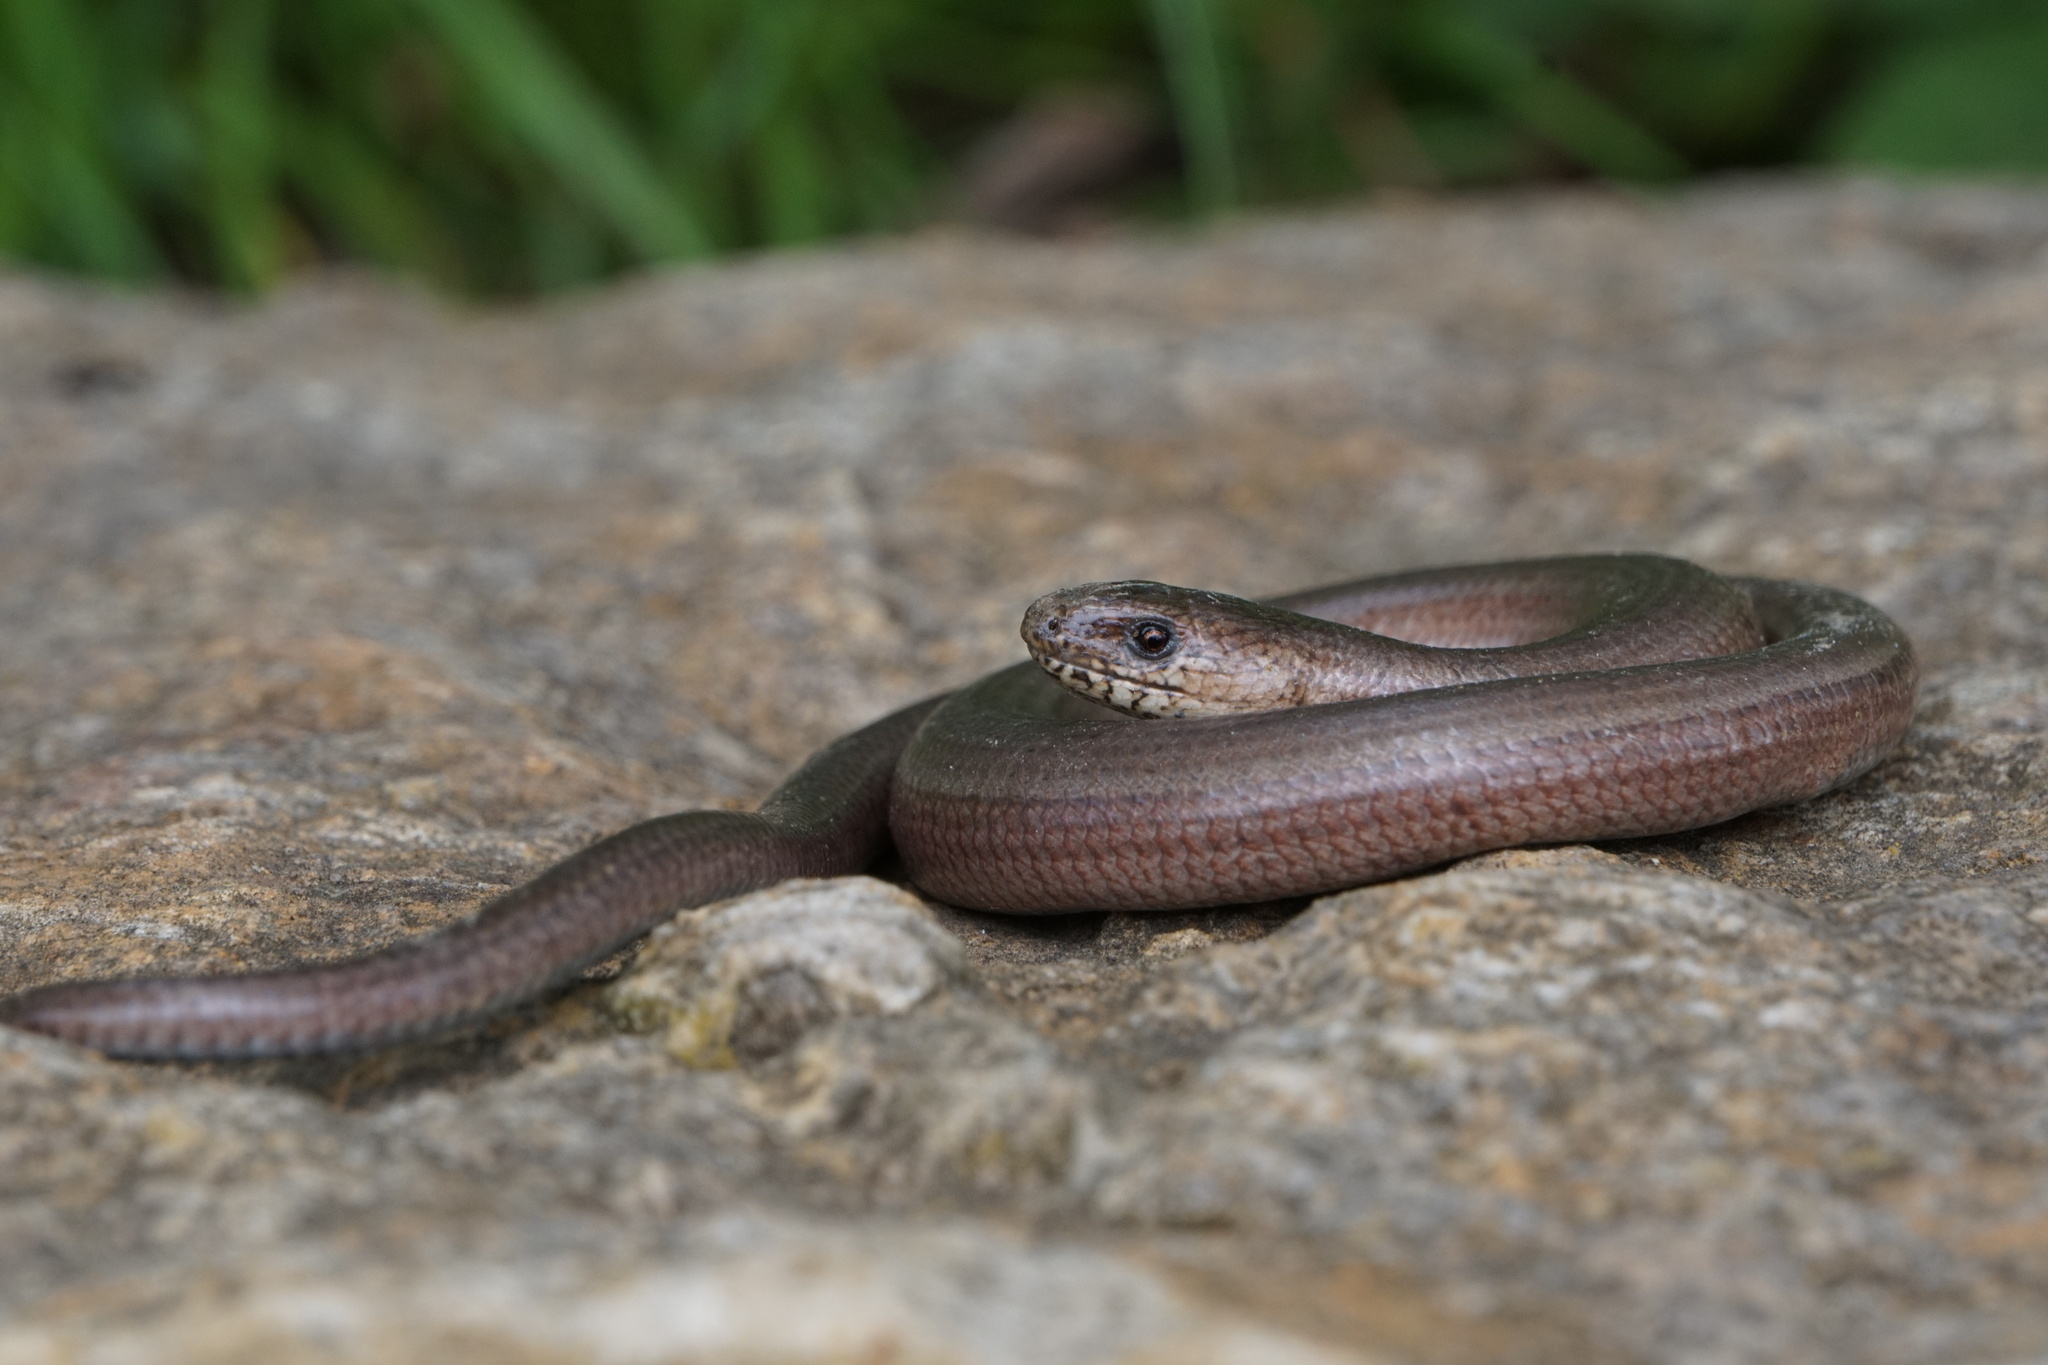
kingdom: Animalia
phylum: Chordata
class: Squamata
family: Anguidae
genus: Anguis
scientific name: Anguis fragilis
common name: Slow worm
